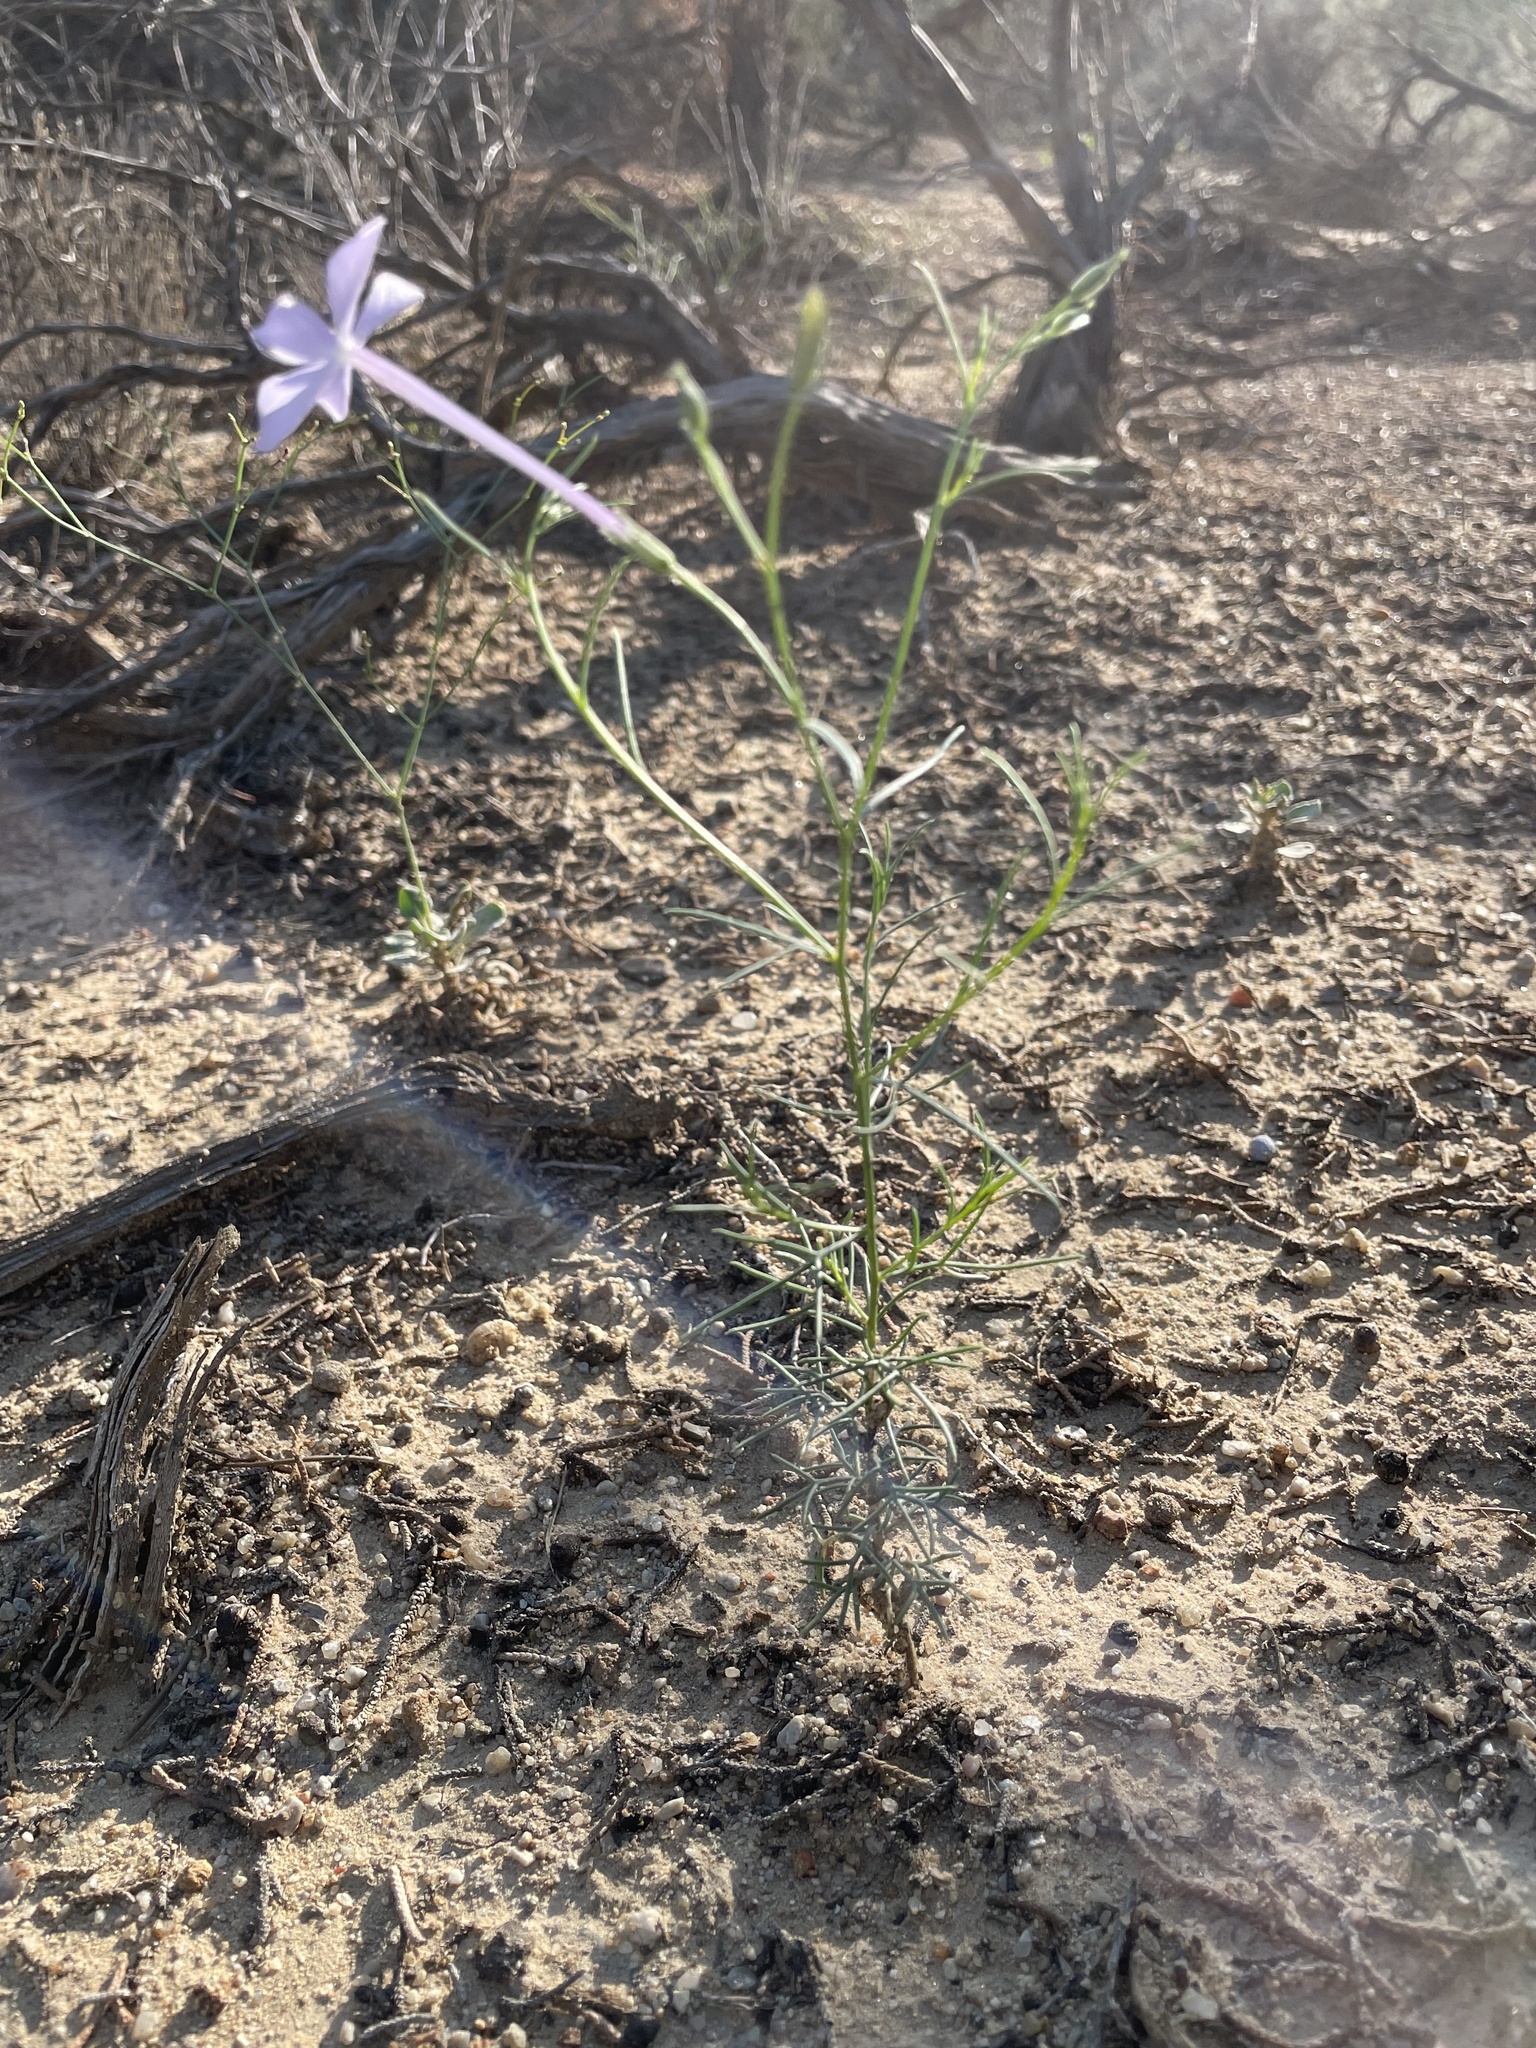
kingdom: Plantae
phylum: Tracheophyta
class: Magnoliopsida
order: Ericales
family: Polemoniaceae
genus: Ipomopsis
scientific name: Ipomopsis longiflora
